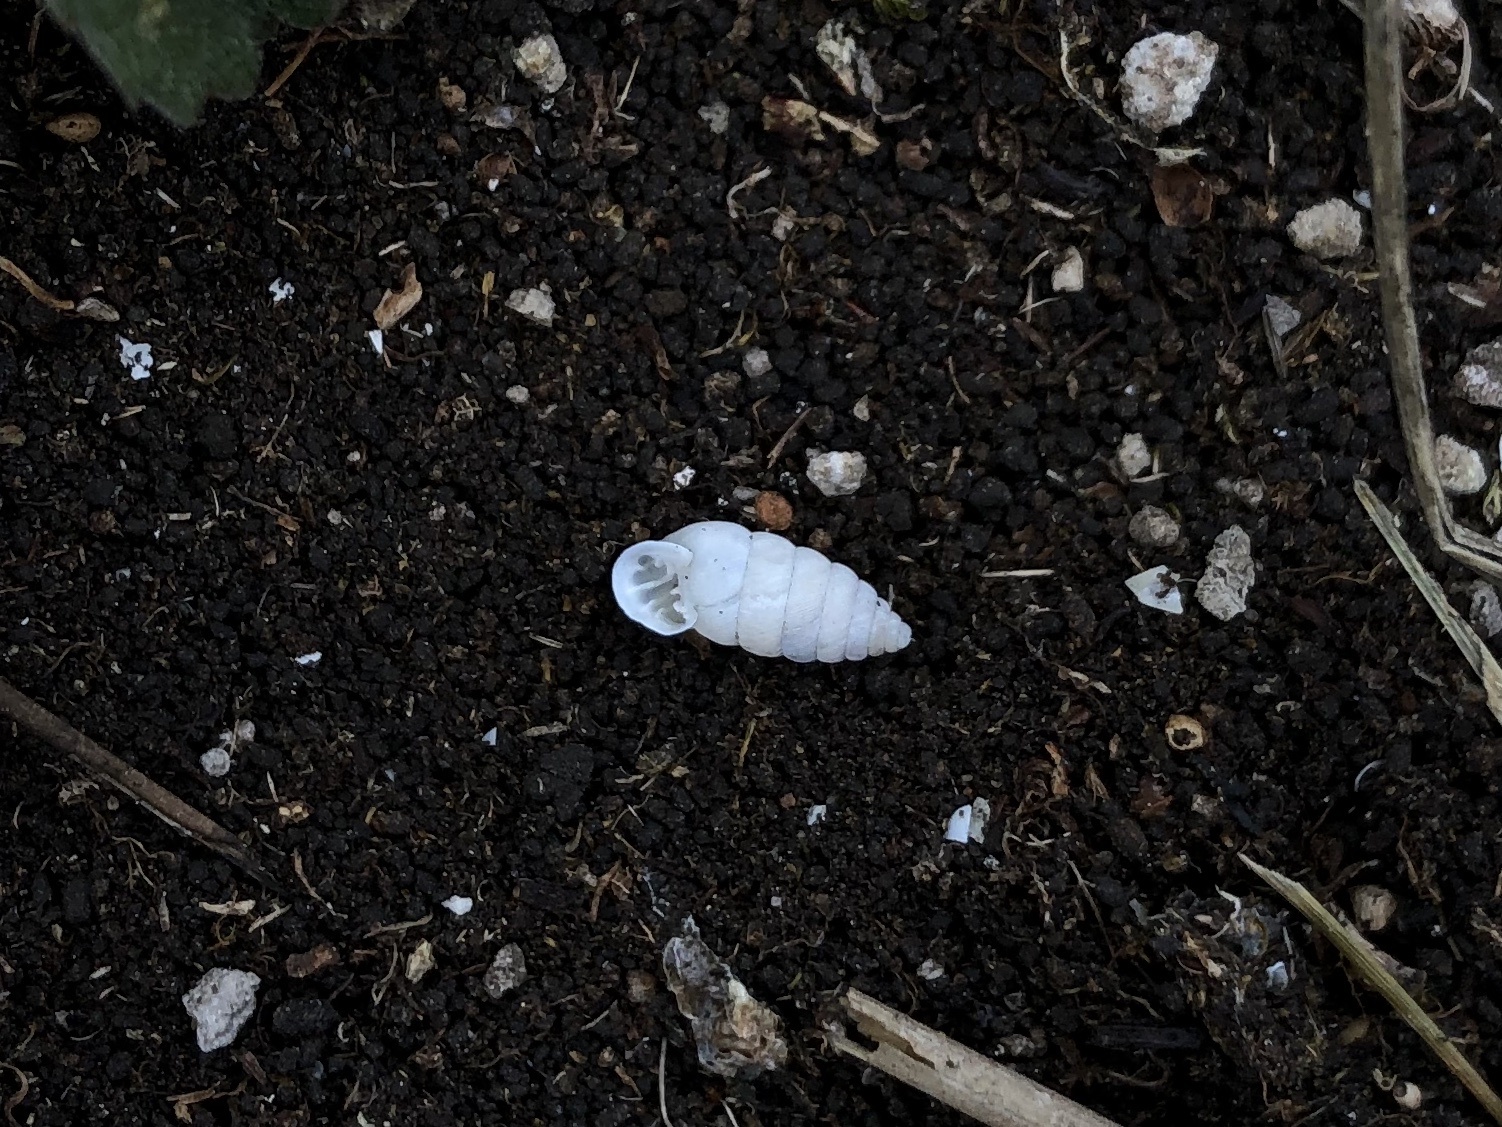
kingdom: Animalia
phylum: Mollusca
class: Gastropoda
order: Stylommatophora
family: Chondrinidae
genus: Granaria
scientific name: Granaria frumentum
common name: An air-breathing land snail
